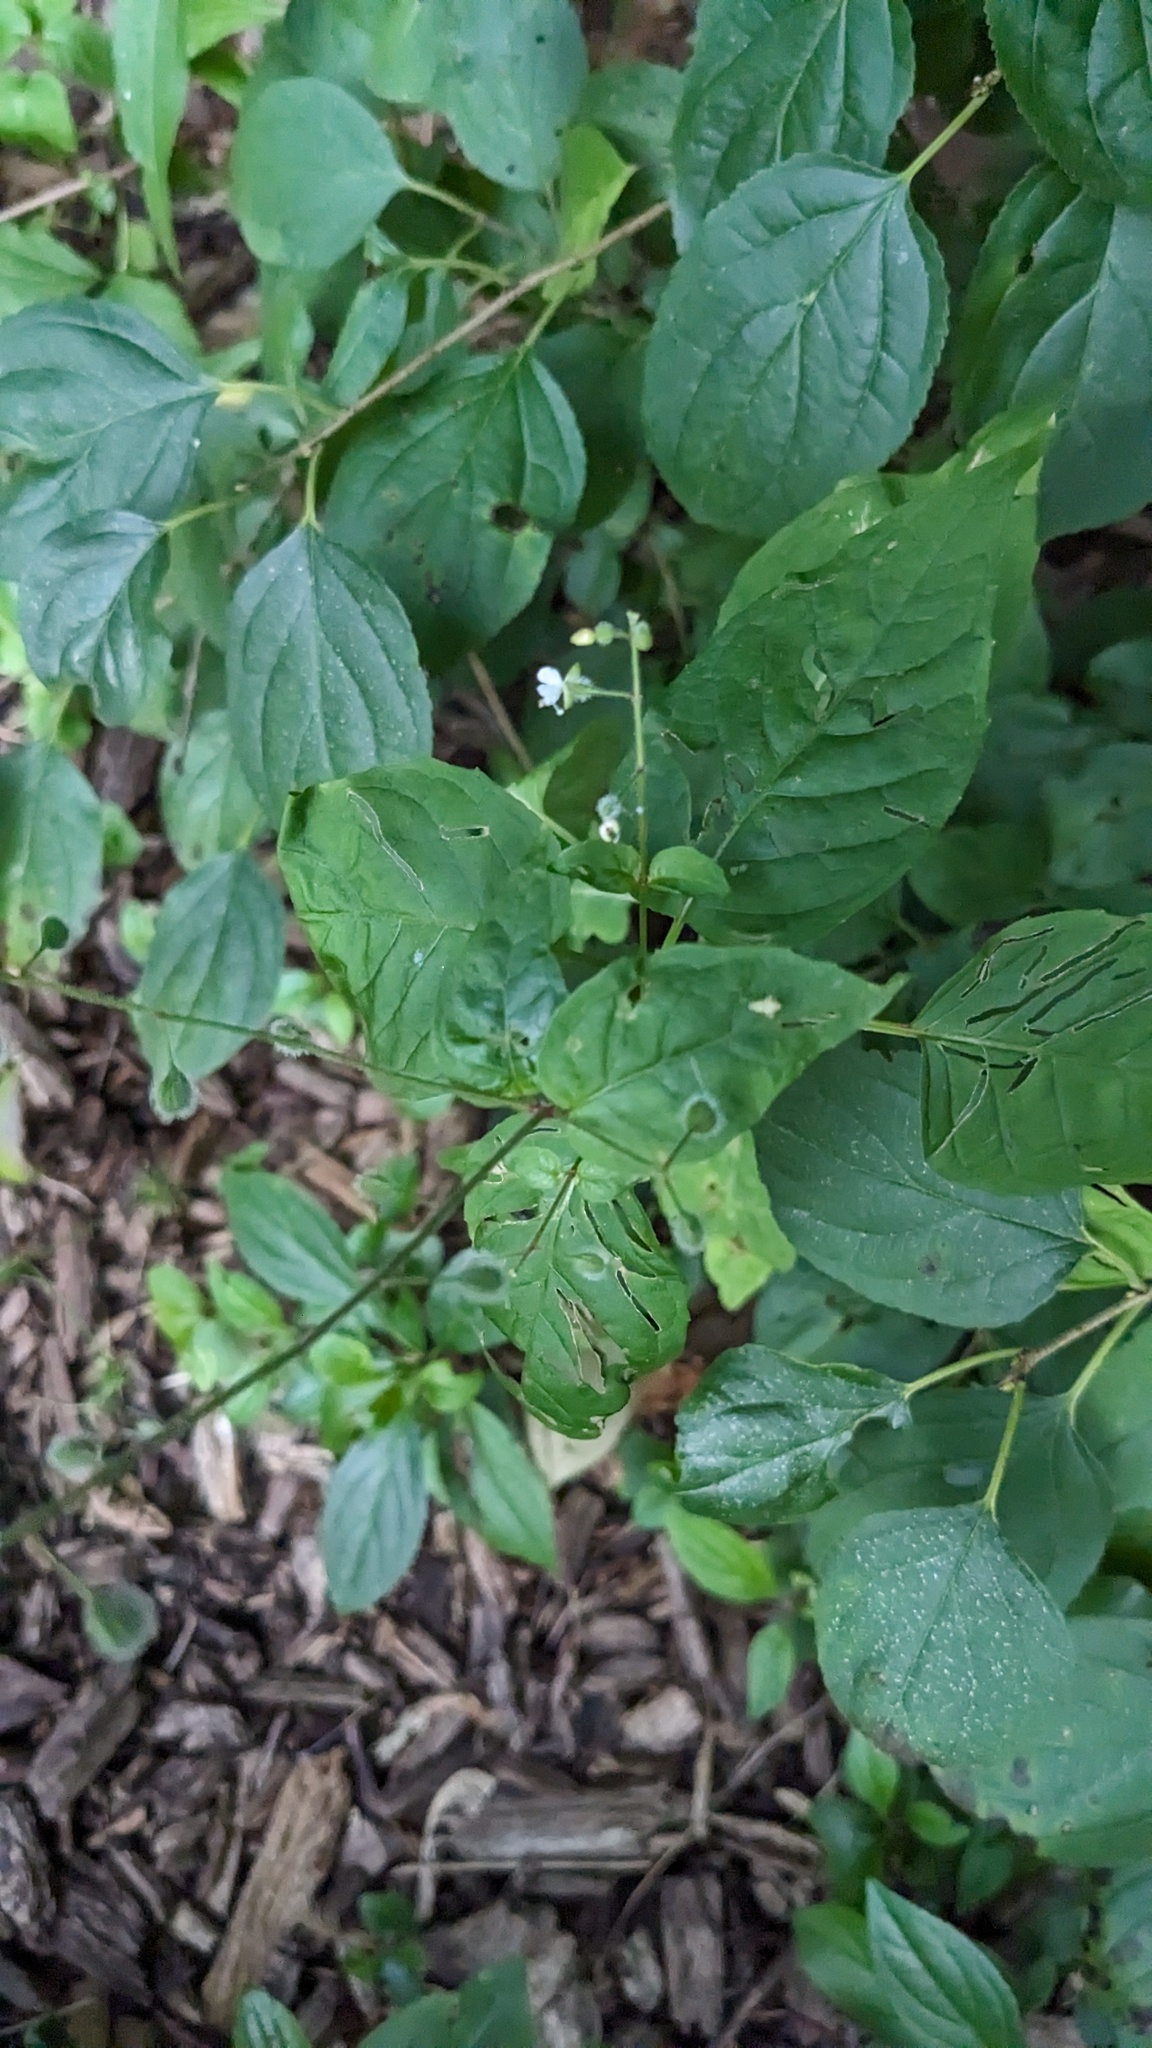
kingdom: Plantae
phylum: Tracheophyta
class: Magnoliopsida
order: Myrtales
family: Onagraceae
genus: Circaea
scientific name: Circaea canadensis
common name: Broad-leaved enchanter's nightshade
